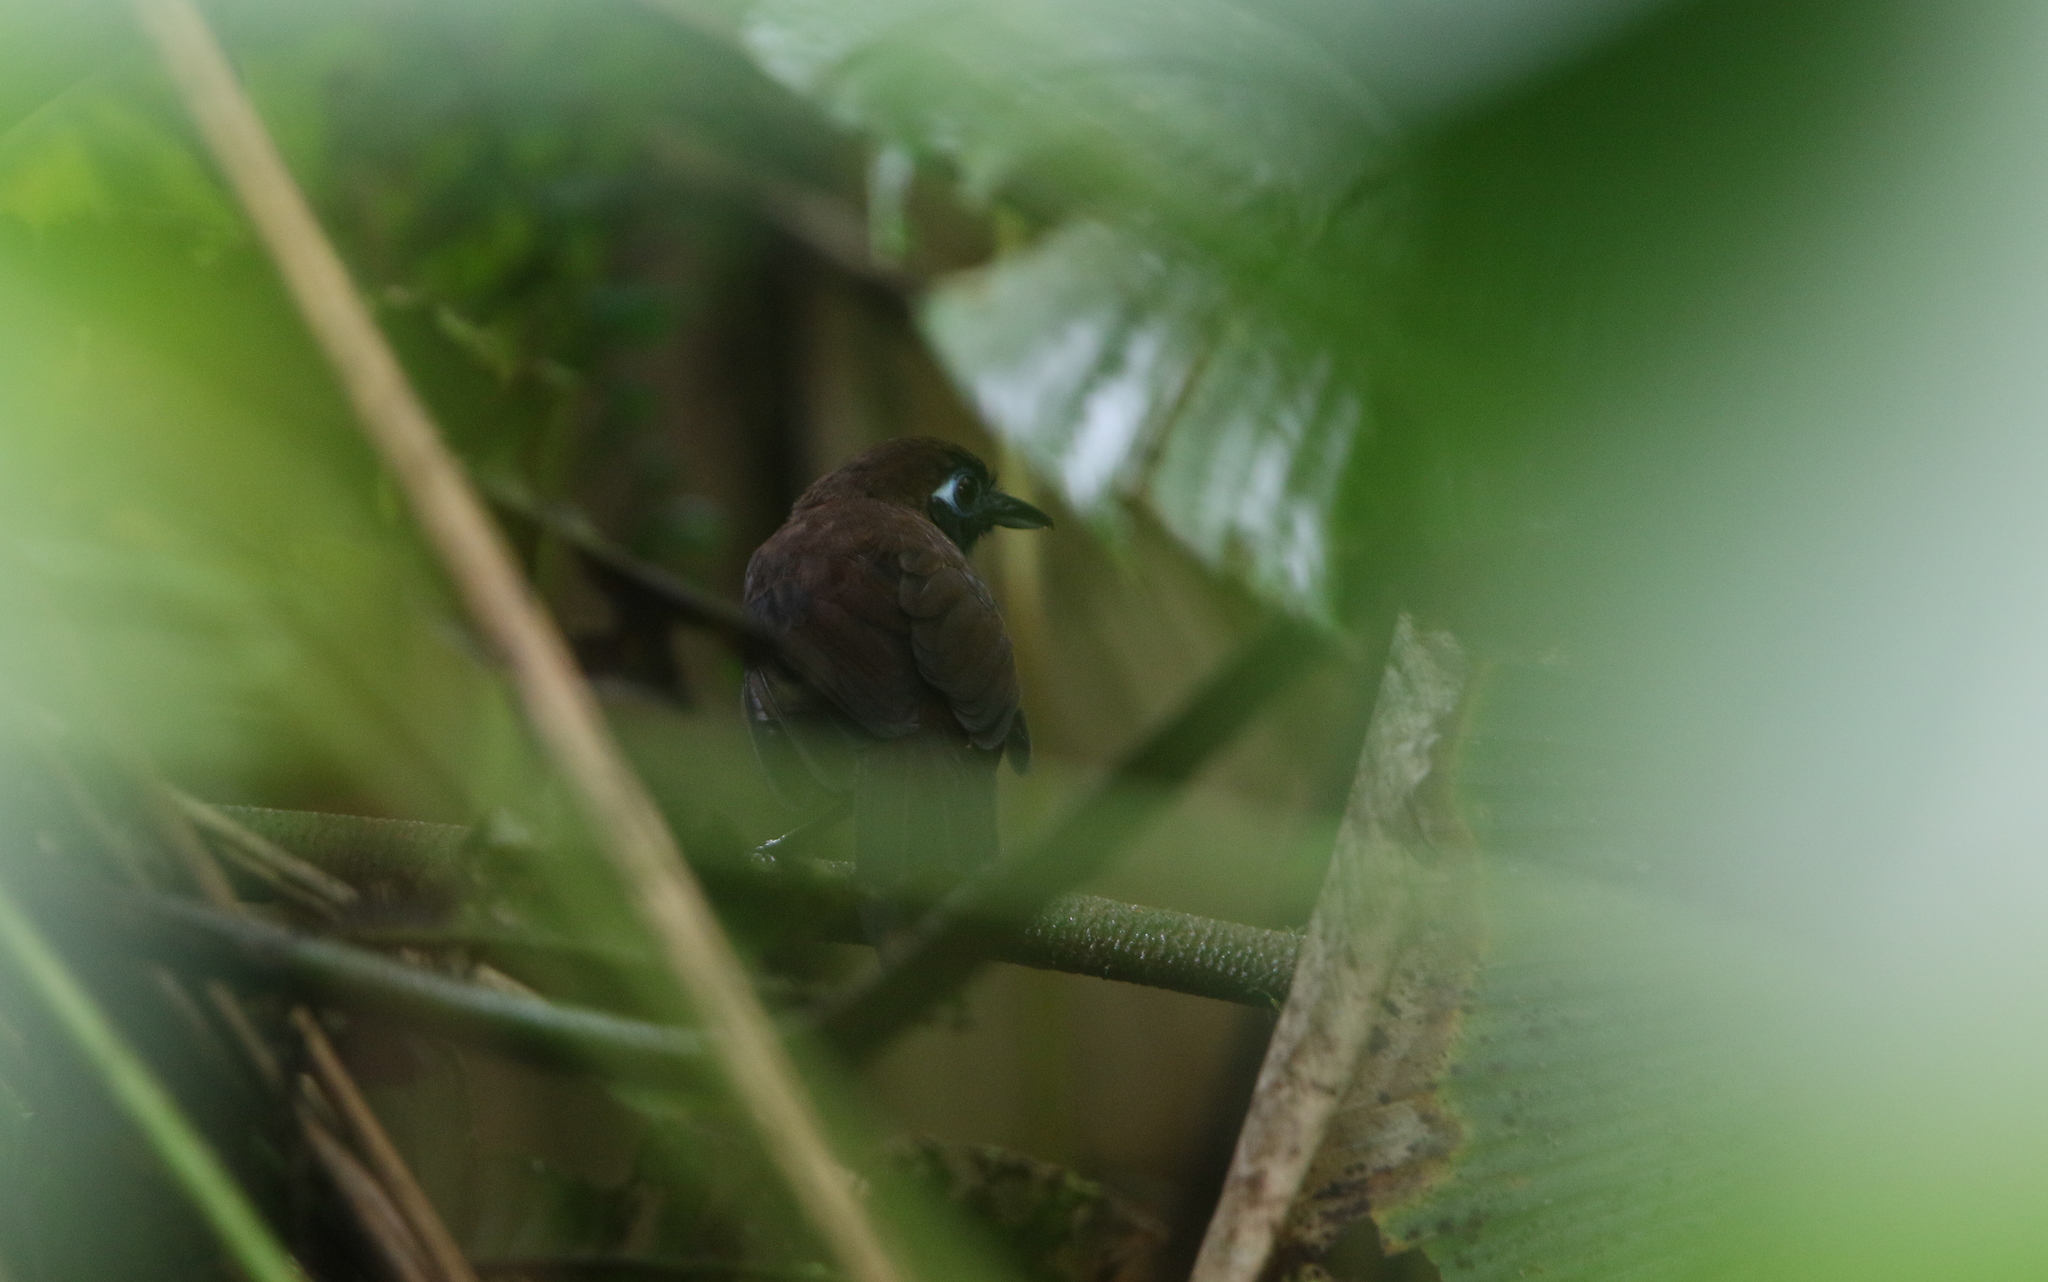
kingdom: Animalia
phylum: Chordata
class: Aves
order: Passeriformes
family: Thamnophilidae
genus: Hafferia
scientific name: Hafferia zeledoni
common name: Zeledon's antbird
